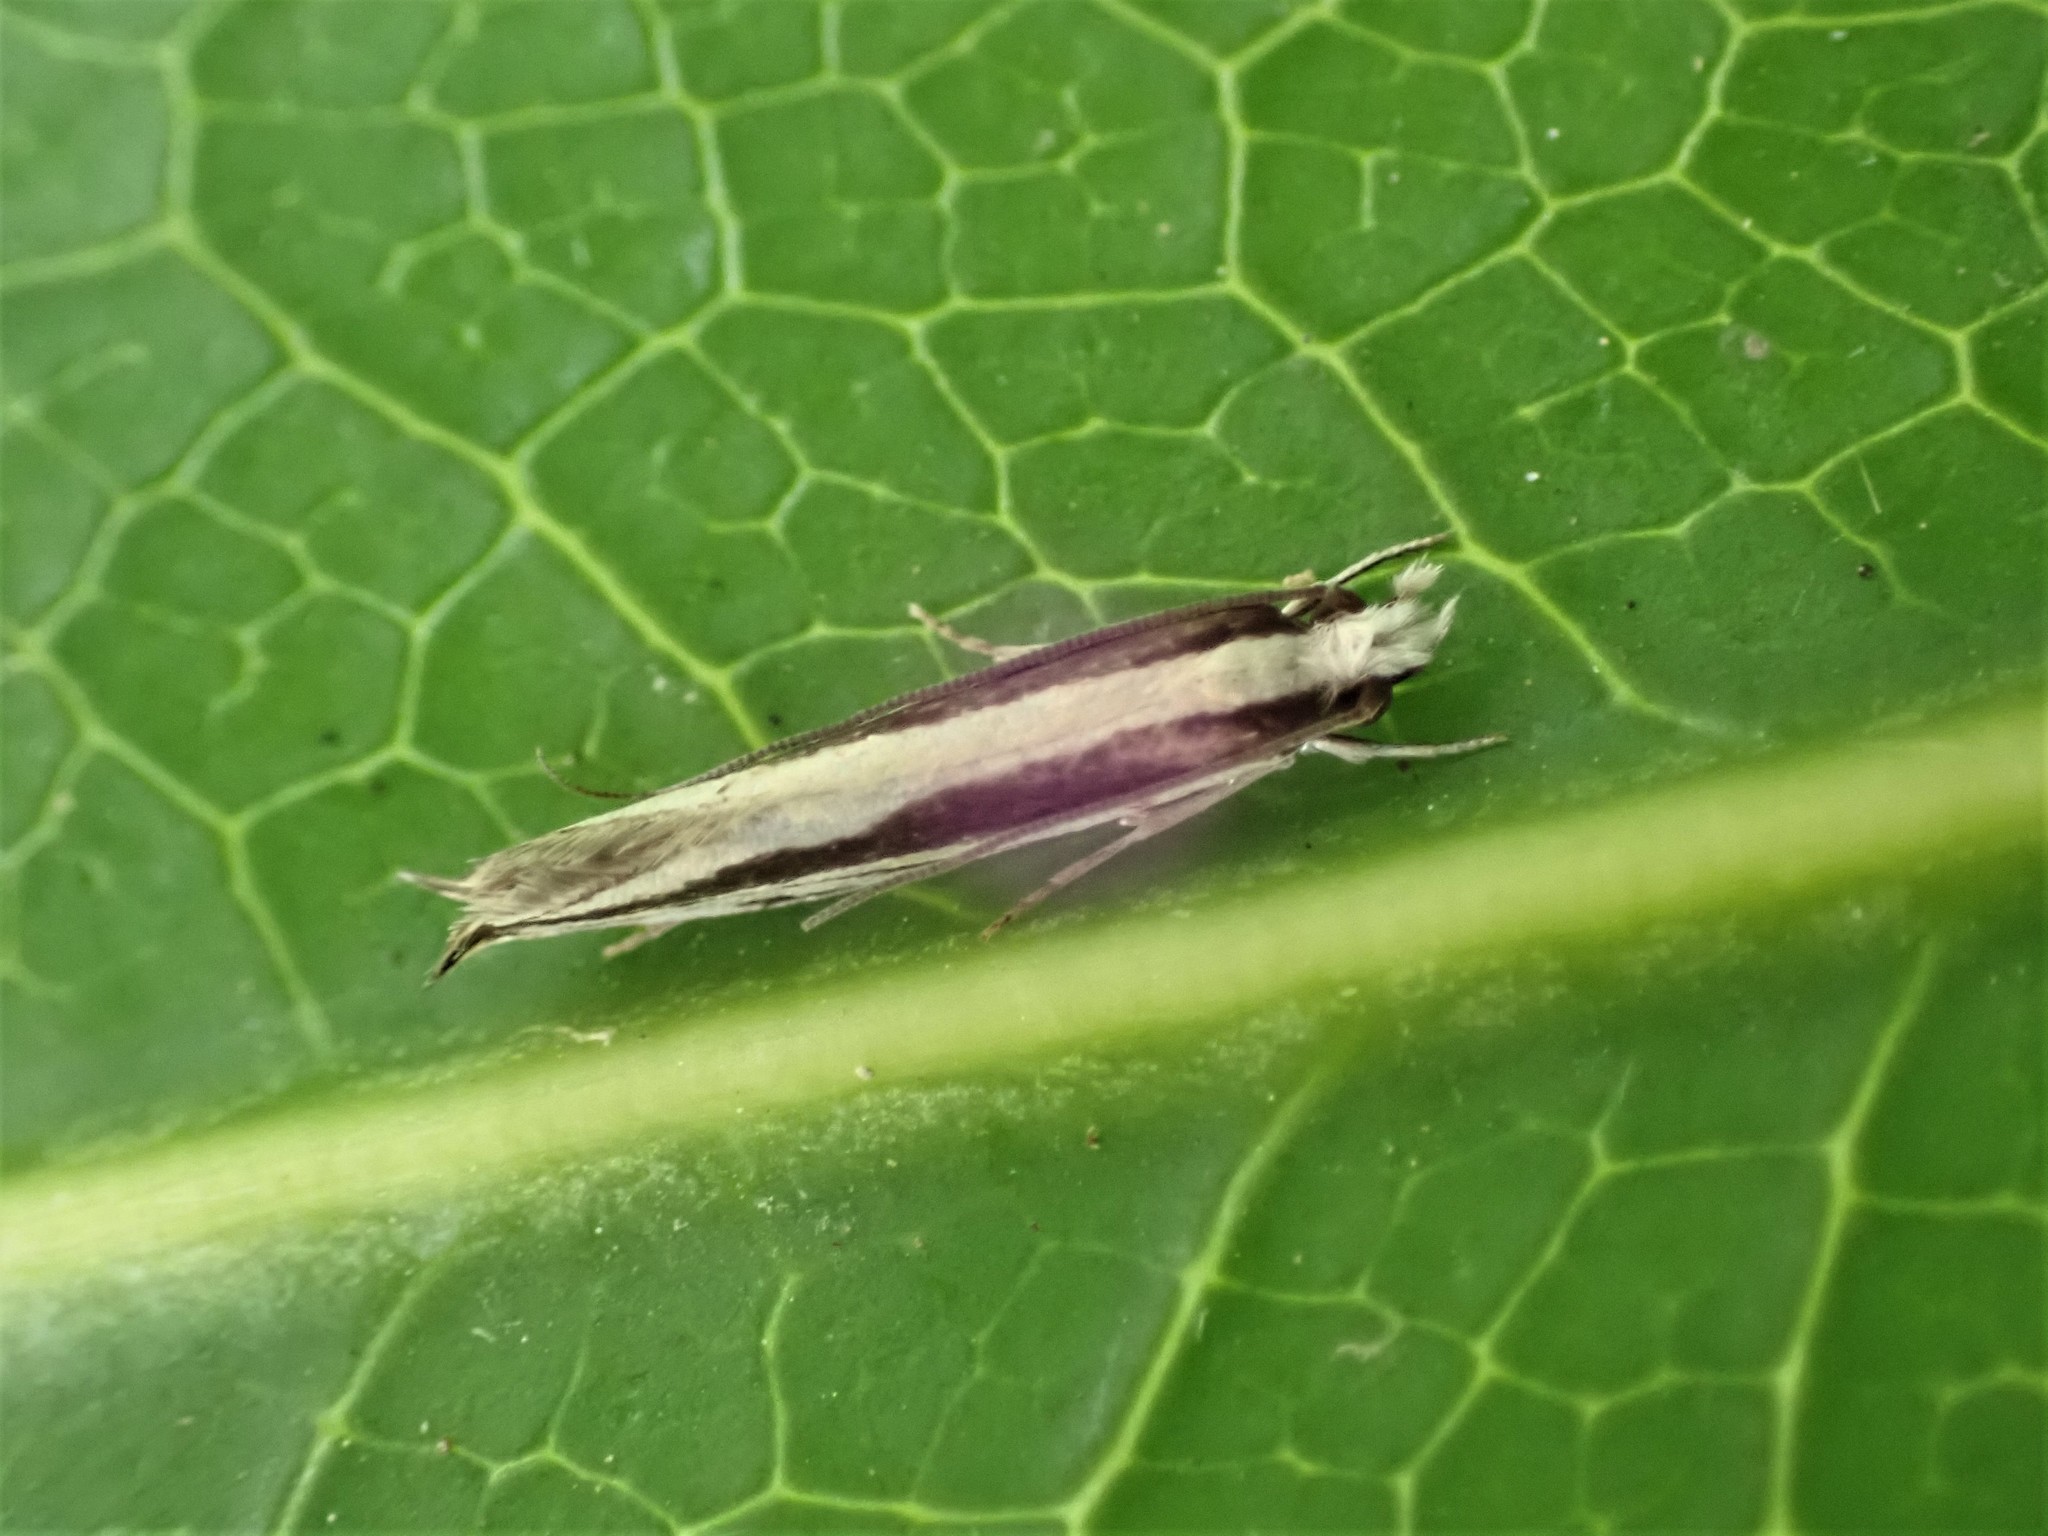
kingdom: Animalia
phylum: Arthropoda
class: Insecta
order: Lepidoptera
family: Tineidae
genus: Erechthias
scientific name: Erechthias stilbella
